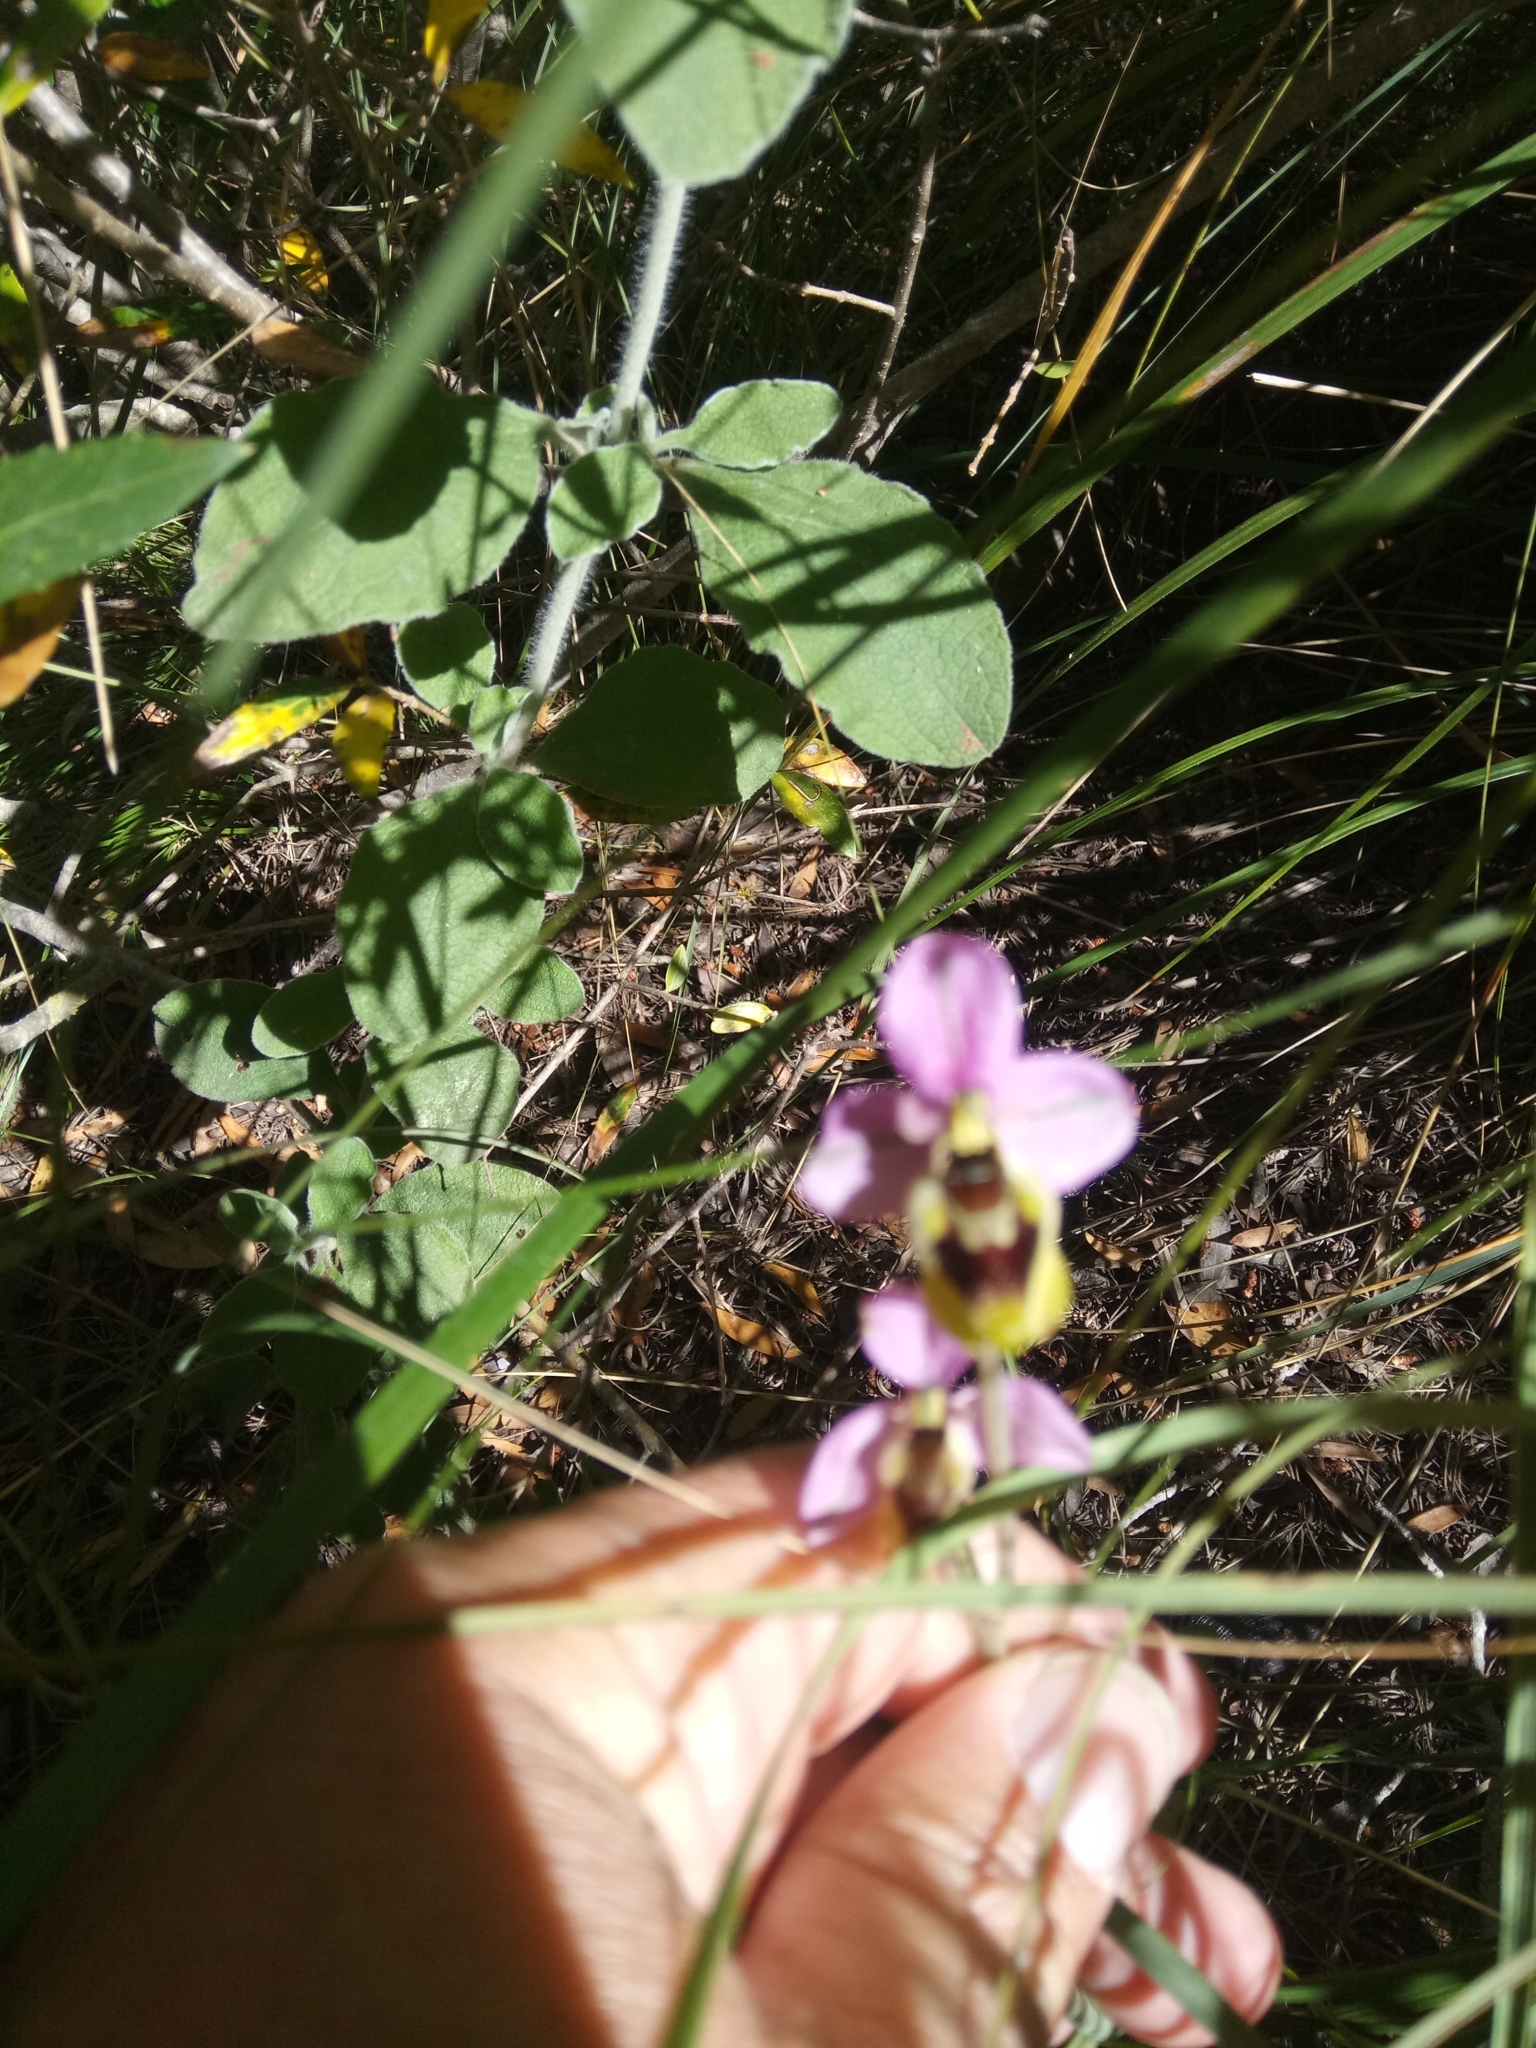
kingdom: Plantae
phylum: Tracheophyta
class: Liliopsida
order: Asparagales
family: Orchidaceae
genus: Ophrys
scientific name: Ophrys tenthredinifera
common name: Sawfly orchid
